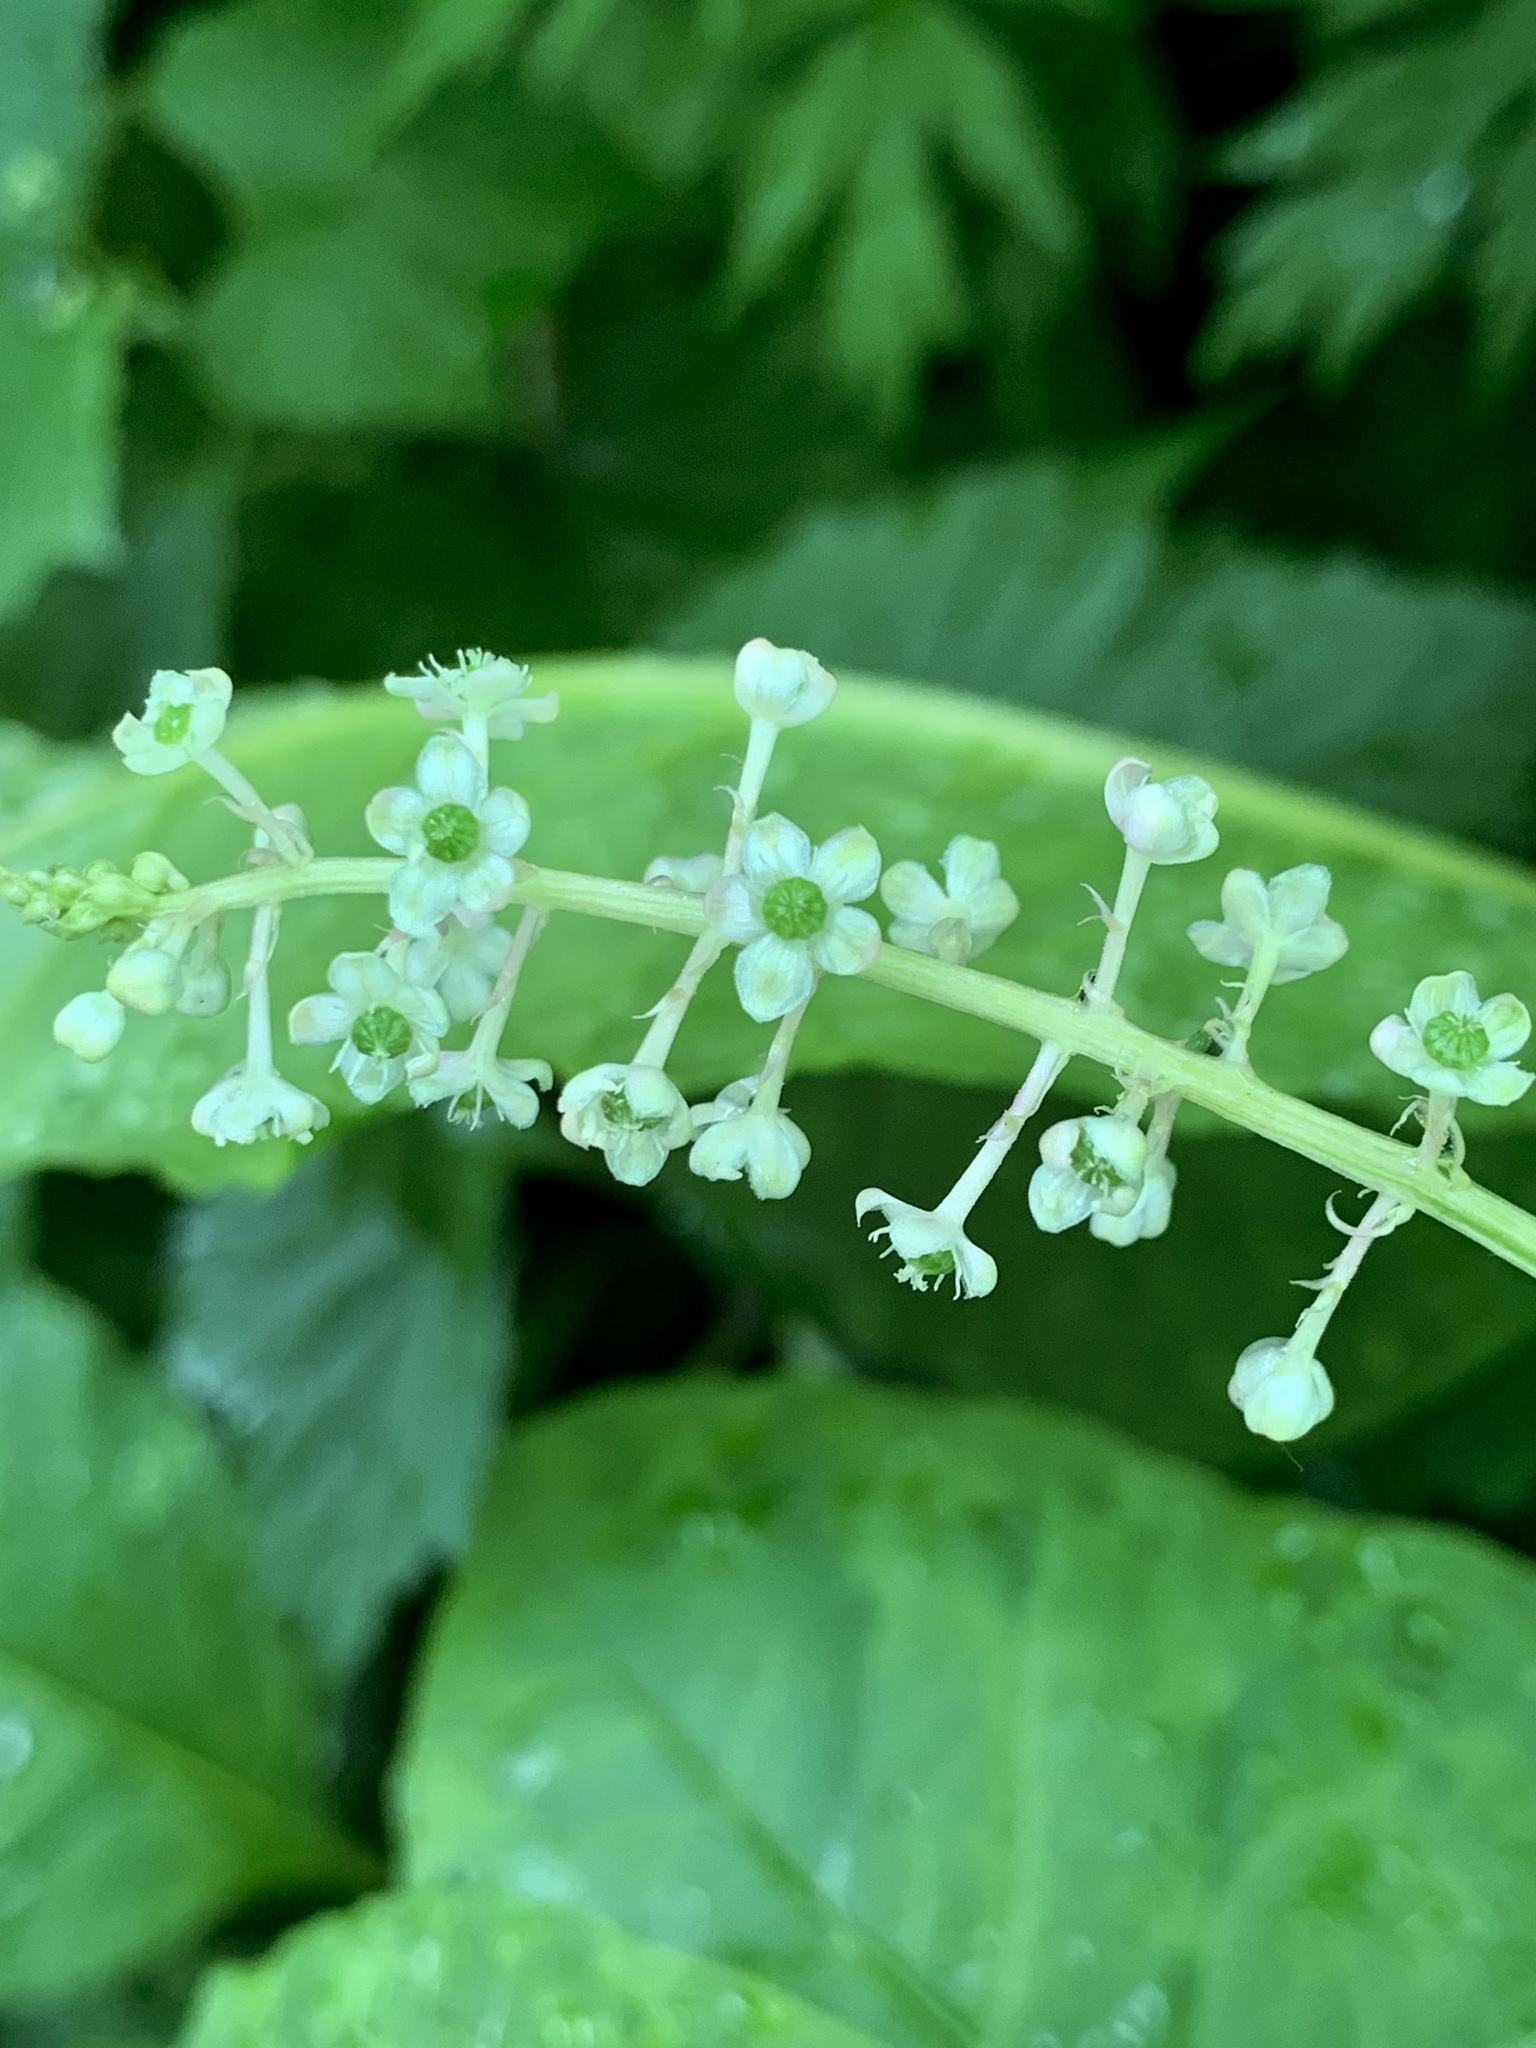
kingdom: Plantae
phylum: Tracheophyta
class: Magnoliopsida
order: Caryophyllales
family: Phytolaccaceae
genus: Phytolacca
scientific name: Phytolacca americana
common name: American pokeweed
